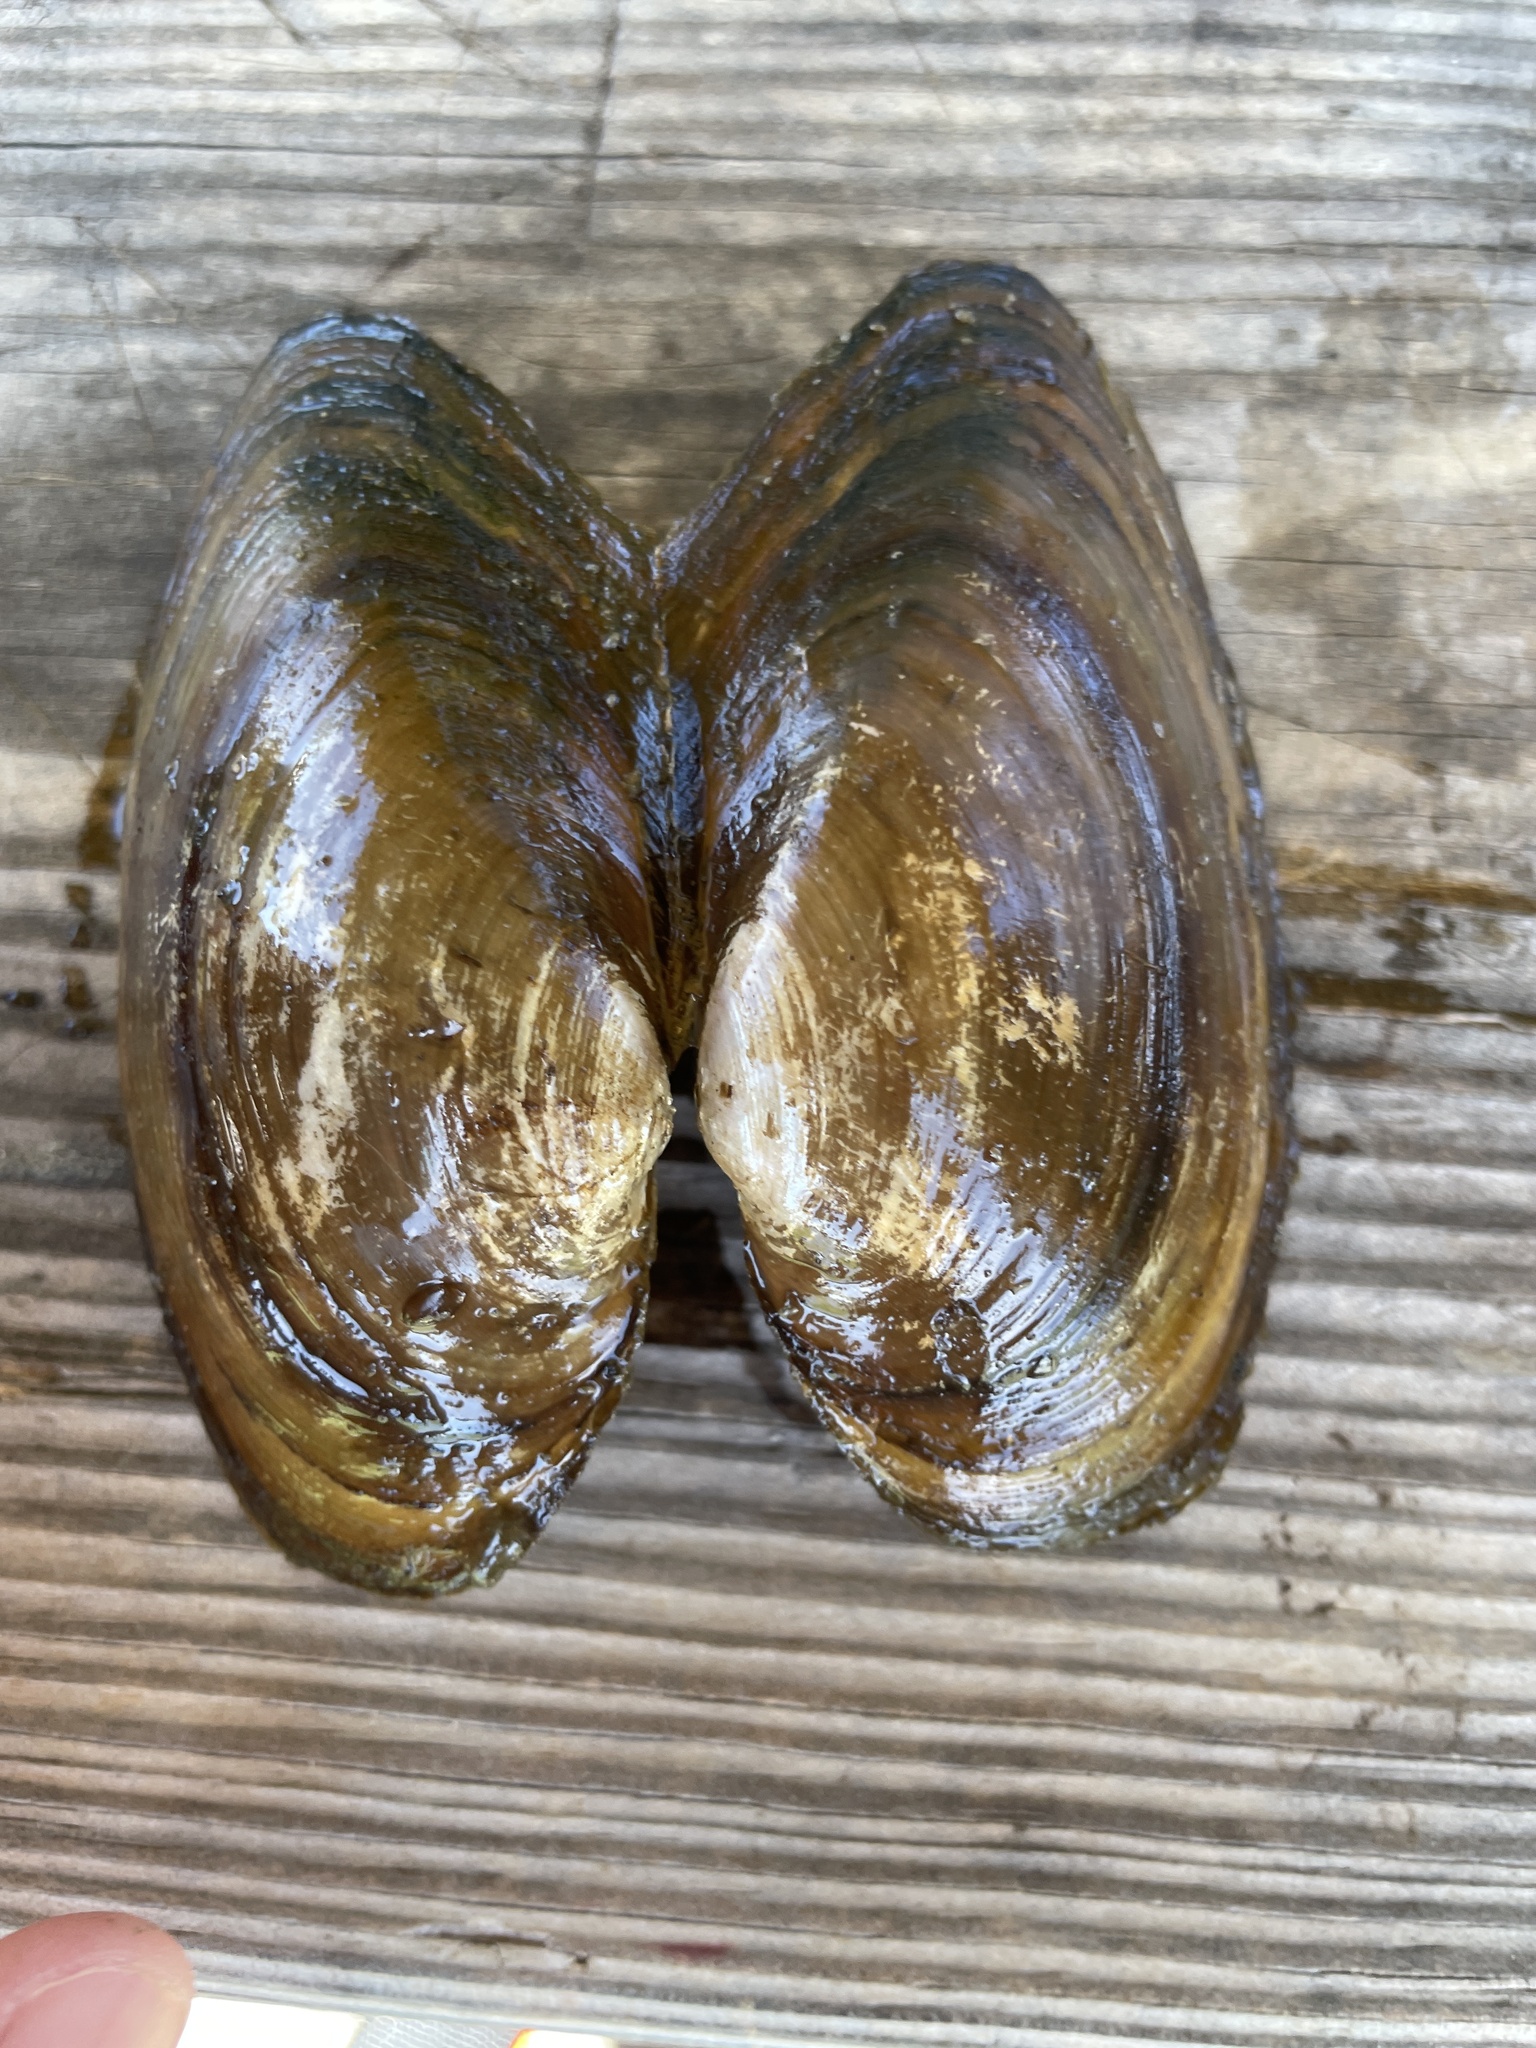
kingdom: Animalia
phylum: Mollusca
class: Bivalvia
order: Unionida
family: Unionidae
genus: Pyganodon
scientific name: Pyganodon grandis
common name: Giant floater
